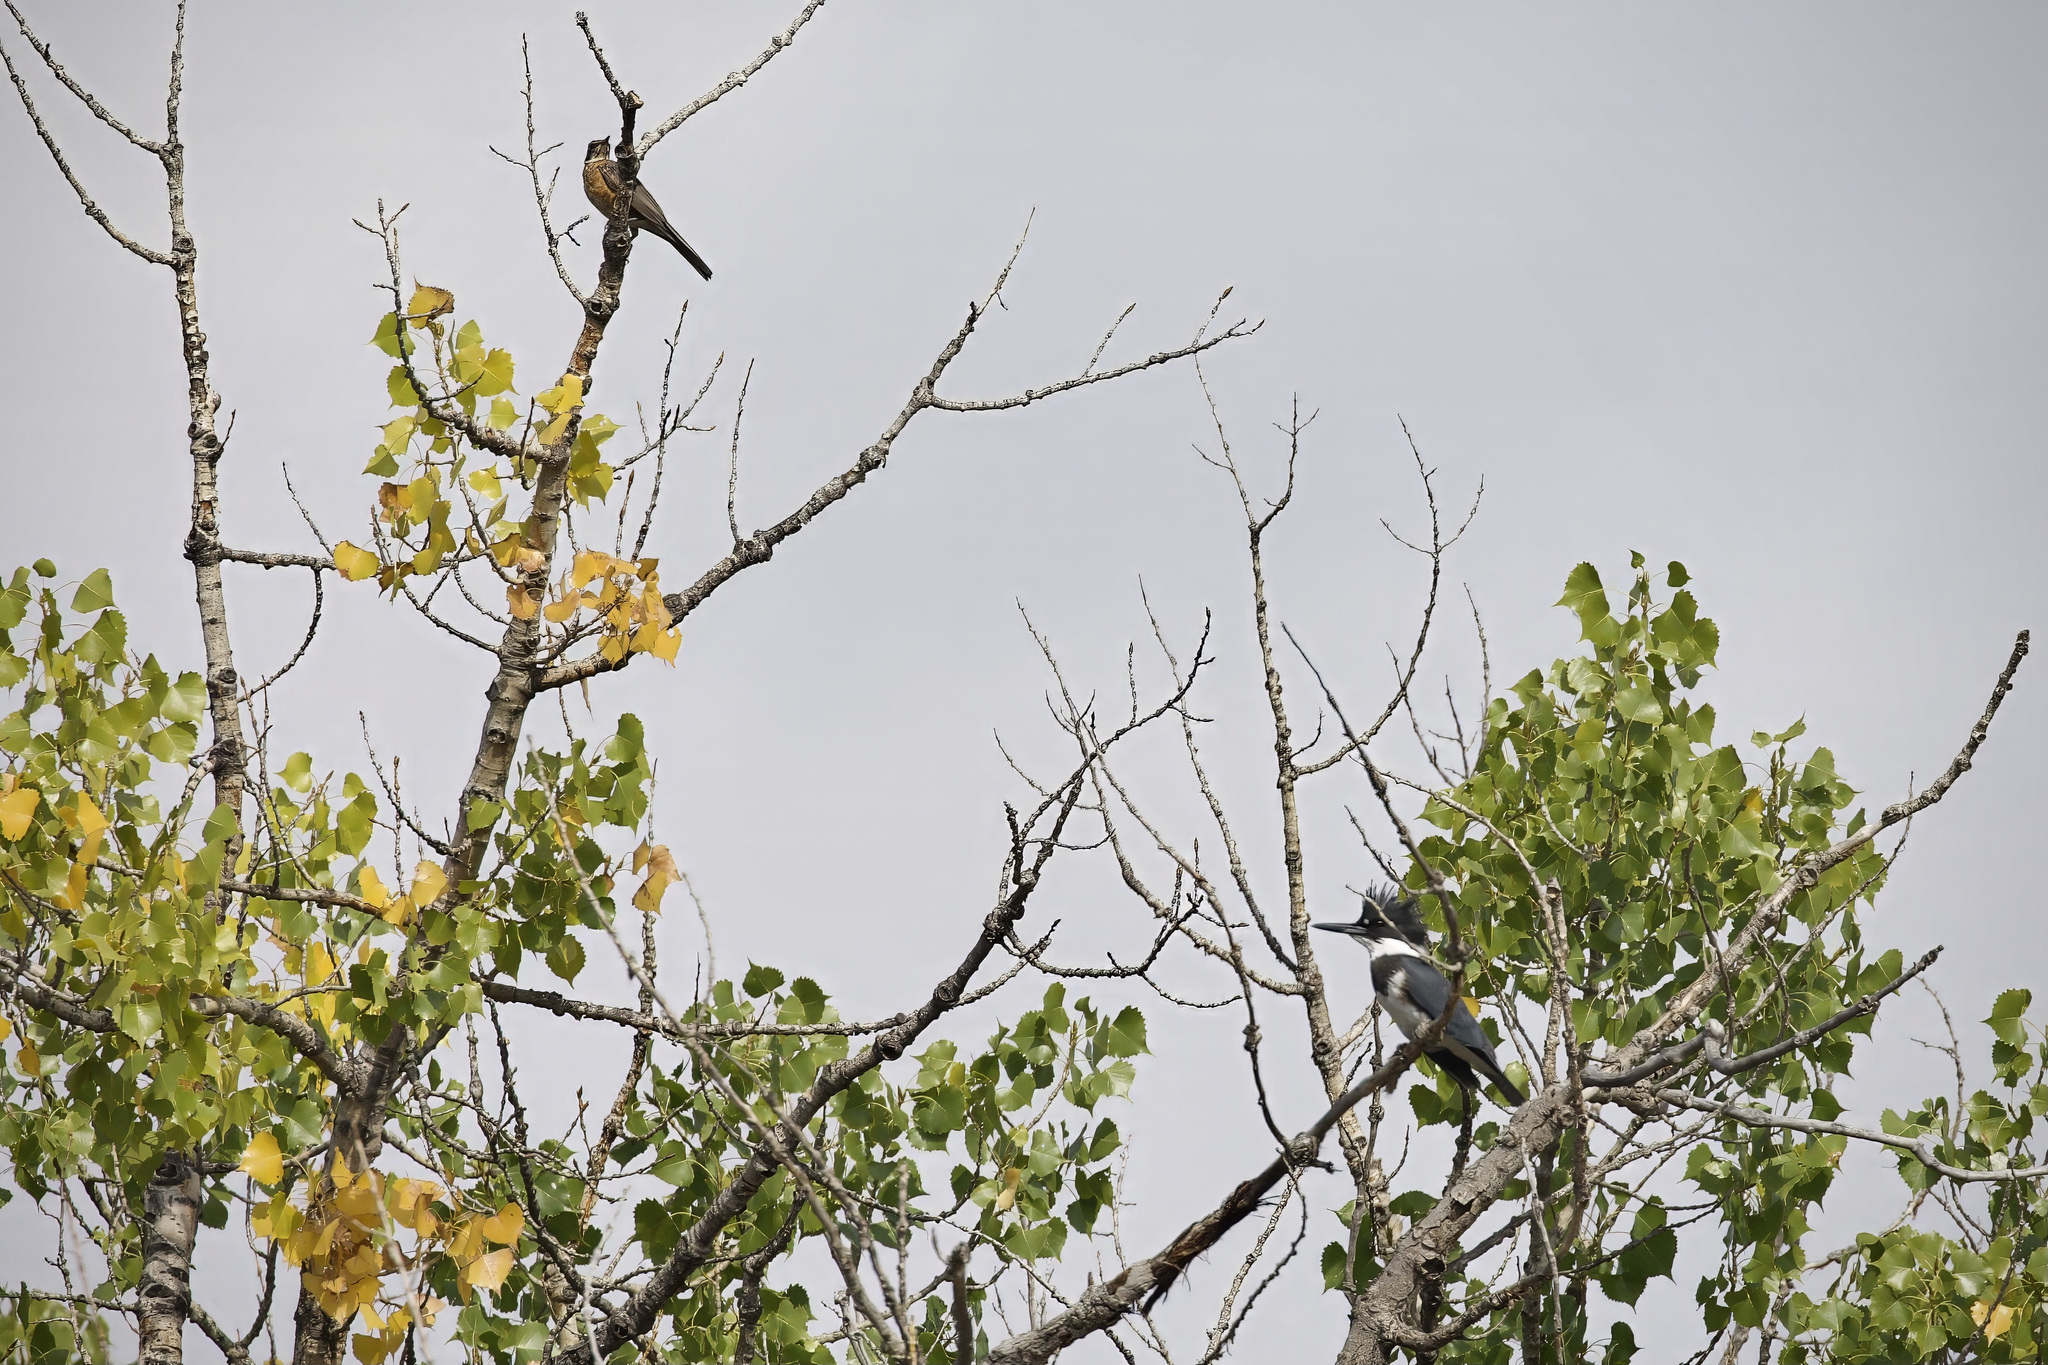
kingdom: Animalia
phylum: Chordata
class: Aves
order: Coraciiformes
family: Alcedinidae
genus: Megaceryle
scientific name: Megaceryle alcyon
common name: Belted kingfisher
